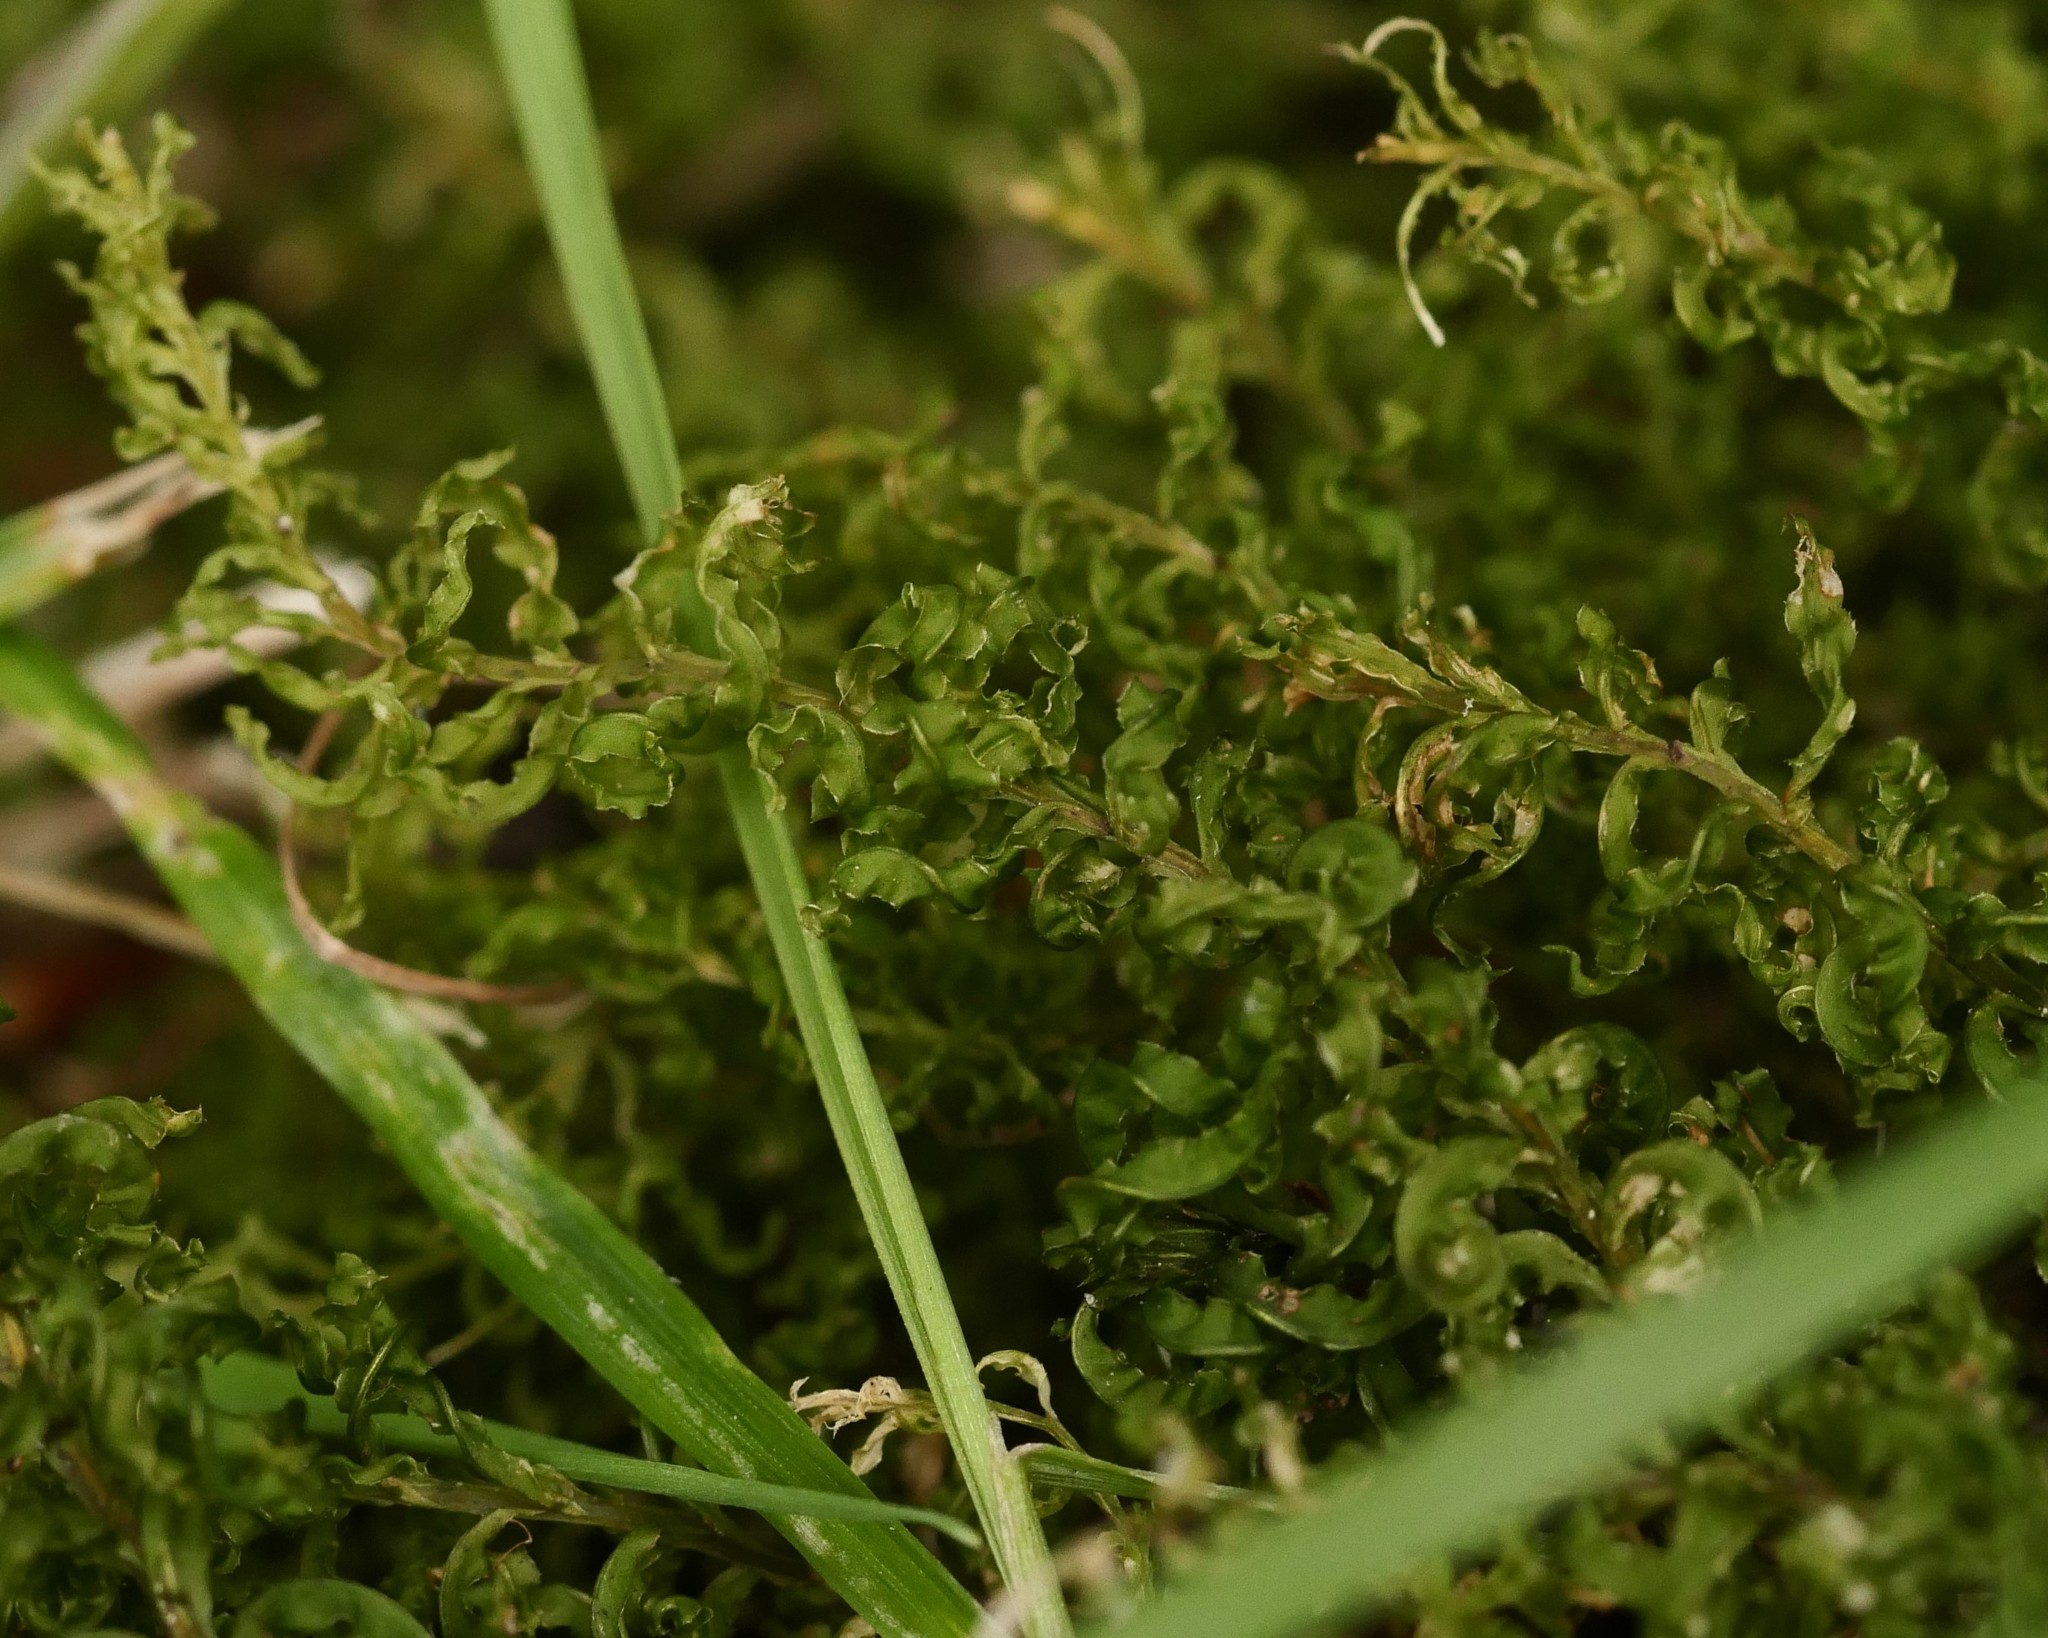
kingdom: Plantae
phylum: Bryophyta
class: Bryopsida
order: Bryales
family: Mniaceae
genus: Plagiomnium
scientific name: Plagiomnium undulatum
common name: Hart's-tongue thyme-moss
